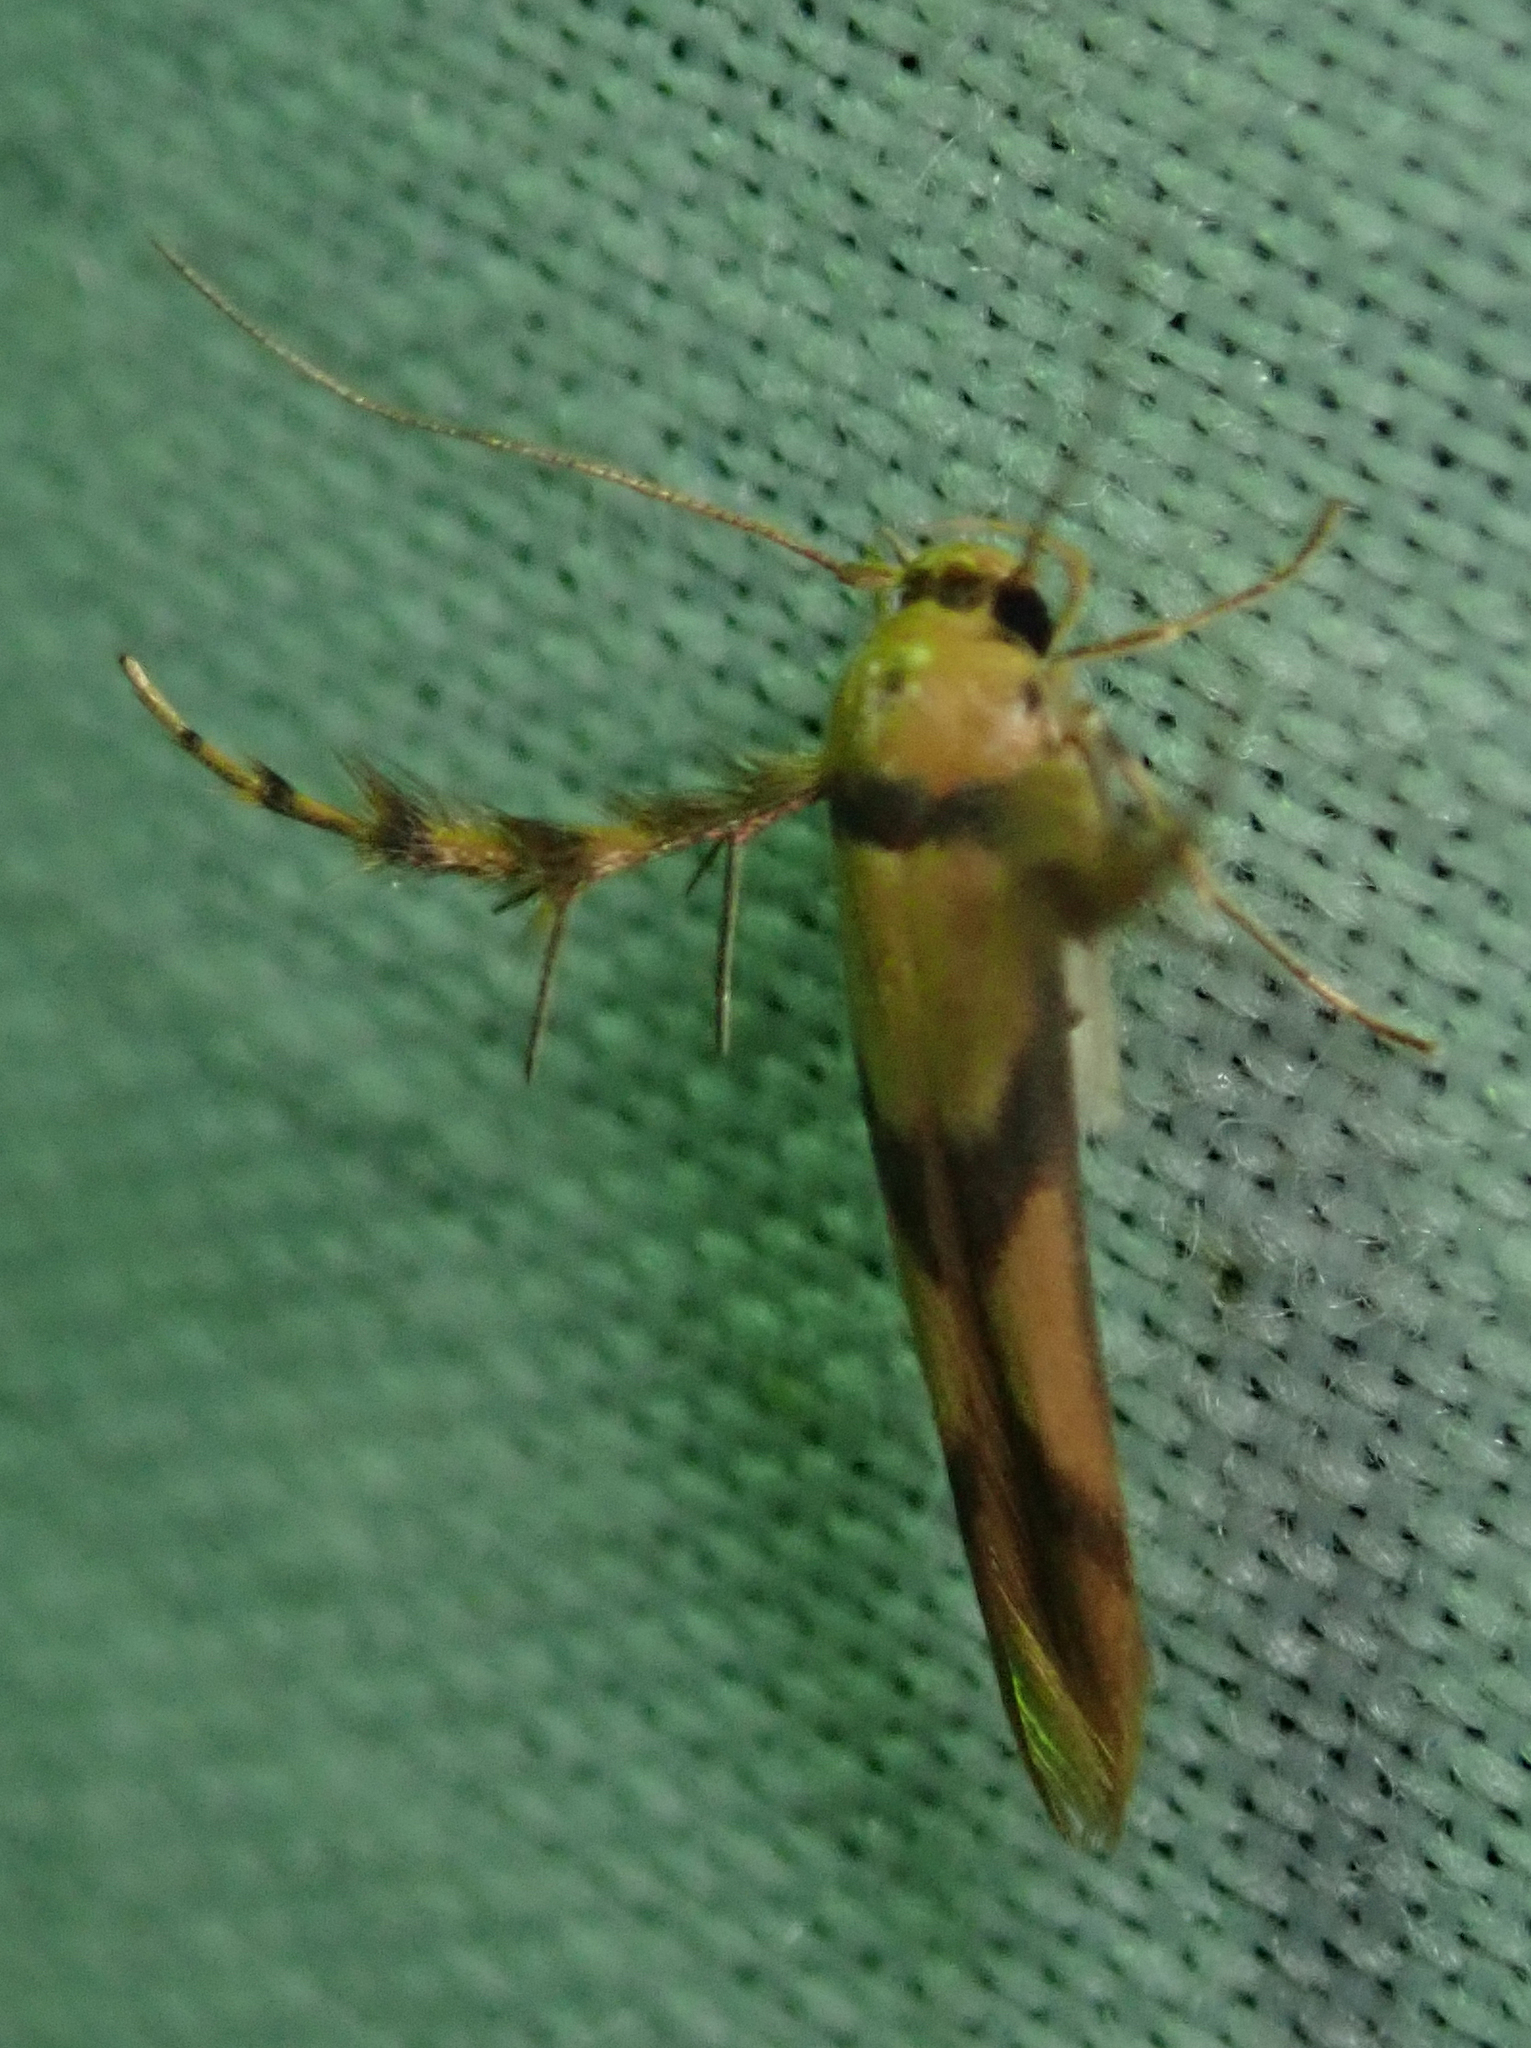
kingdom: Animalia
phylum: Arthropoda
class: Insecta
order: Lepidoptera
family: Stathmopodidae
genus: Stathmopoda
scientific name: Stathmopoda crassella
